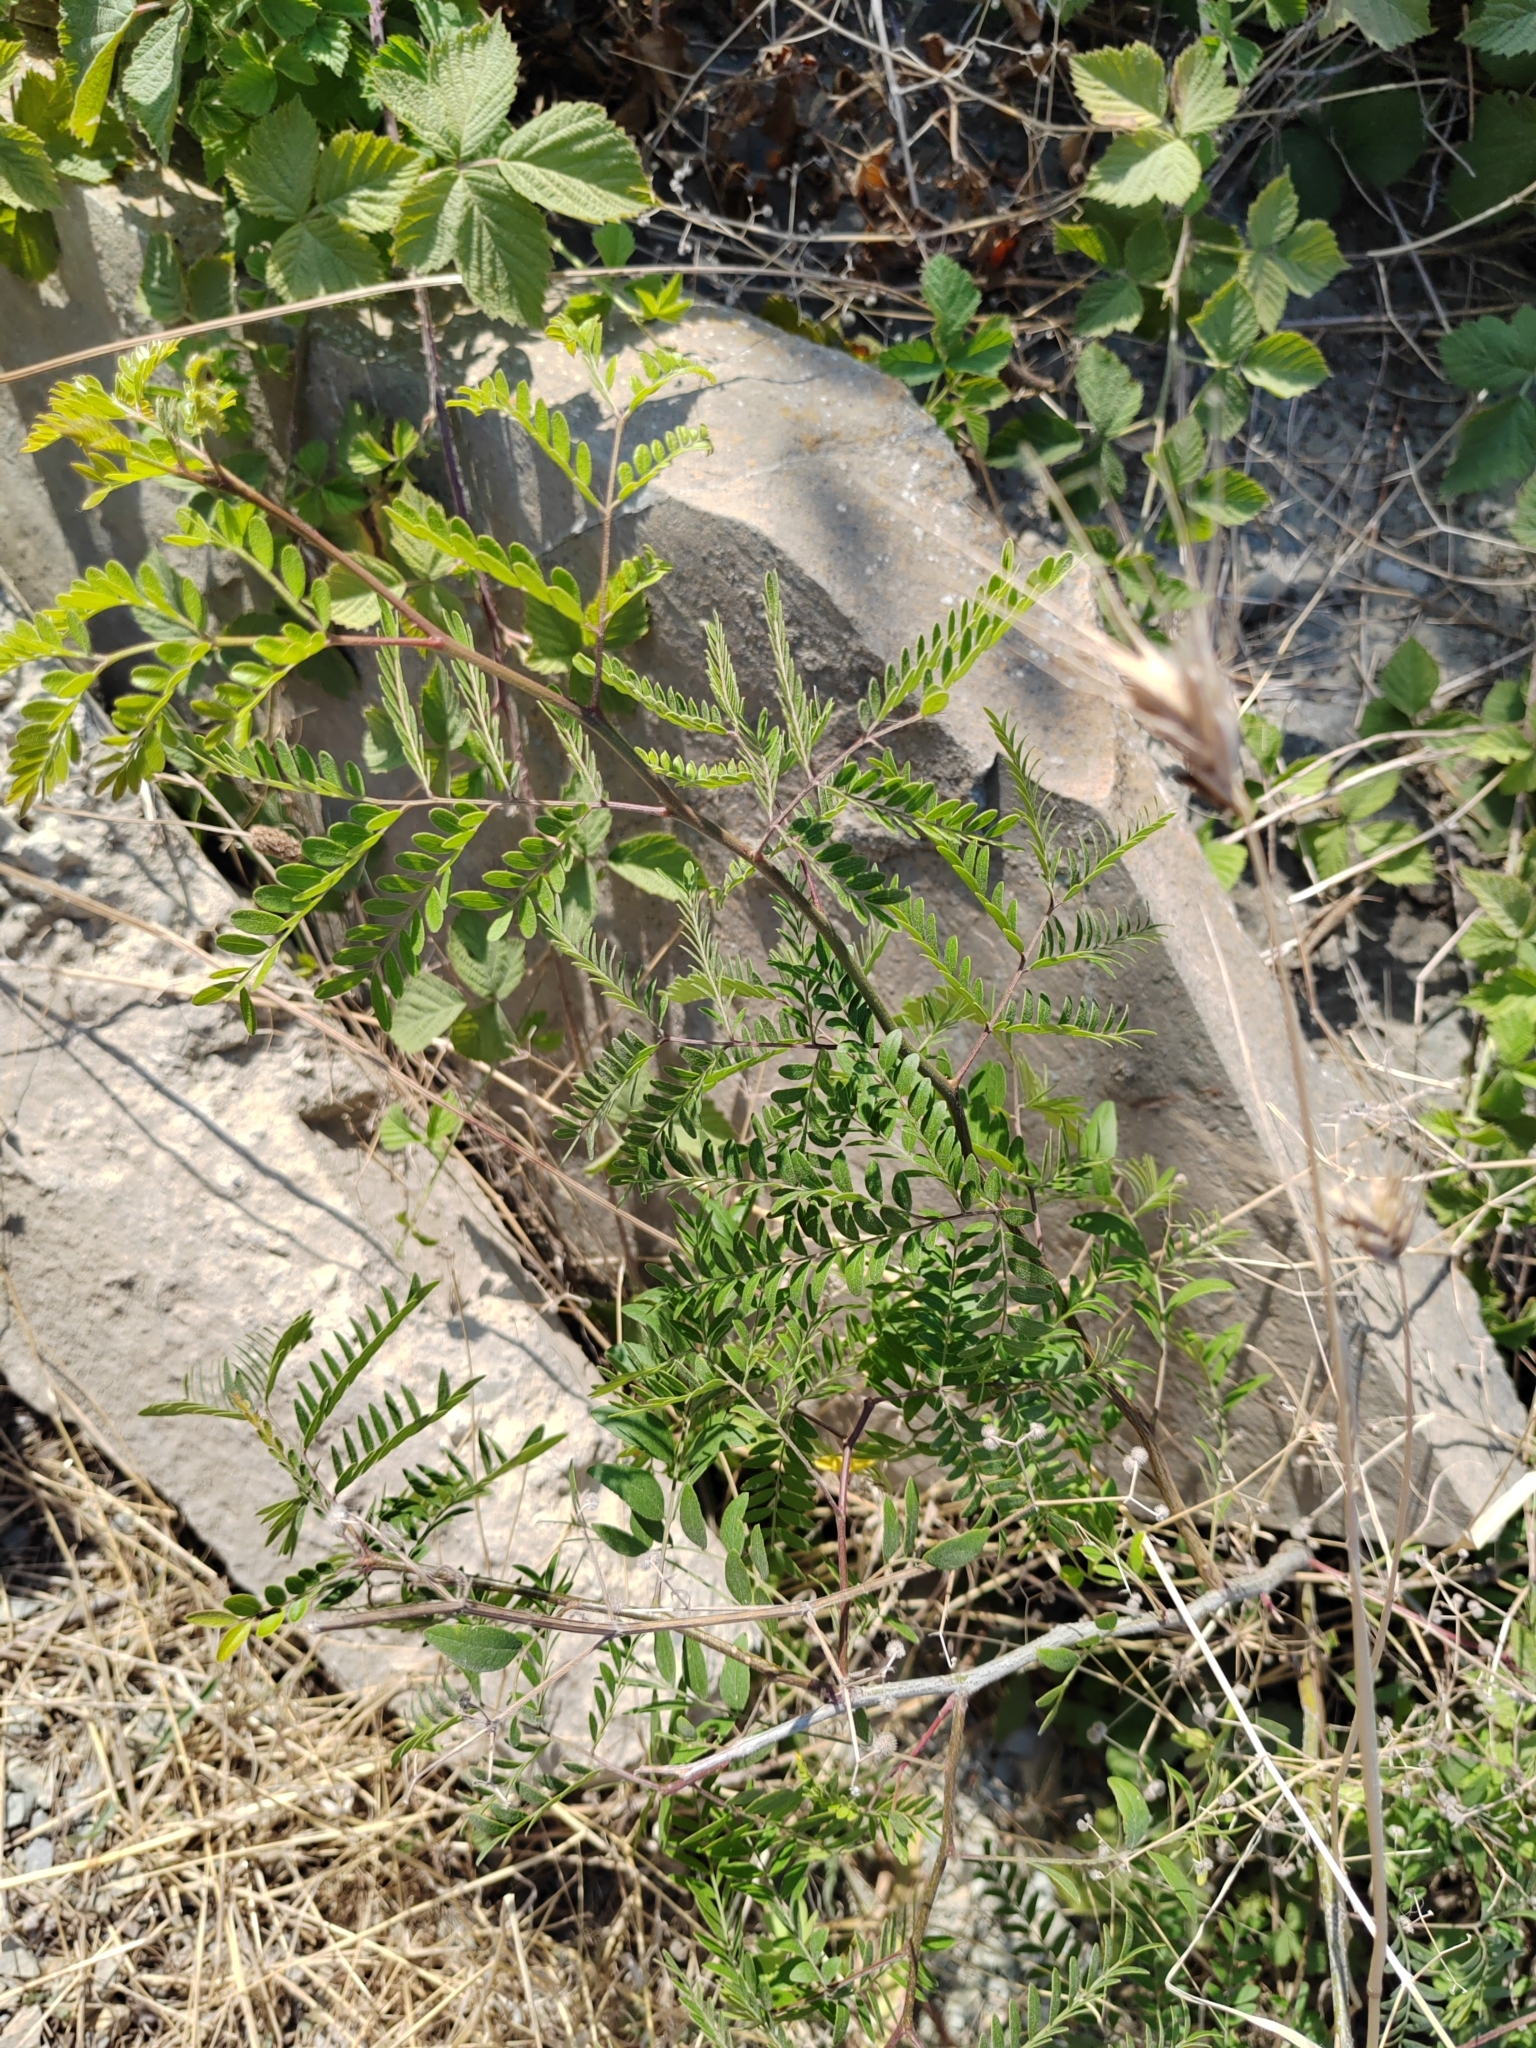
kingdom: Plantae
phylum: Tracheophyta
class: Magnoliopsida
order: Fabales
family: Fabaceae
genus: Gleditsia
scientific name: Gleditsia triacanthos
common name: Common honeylocust
